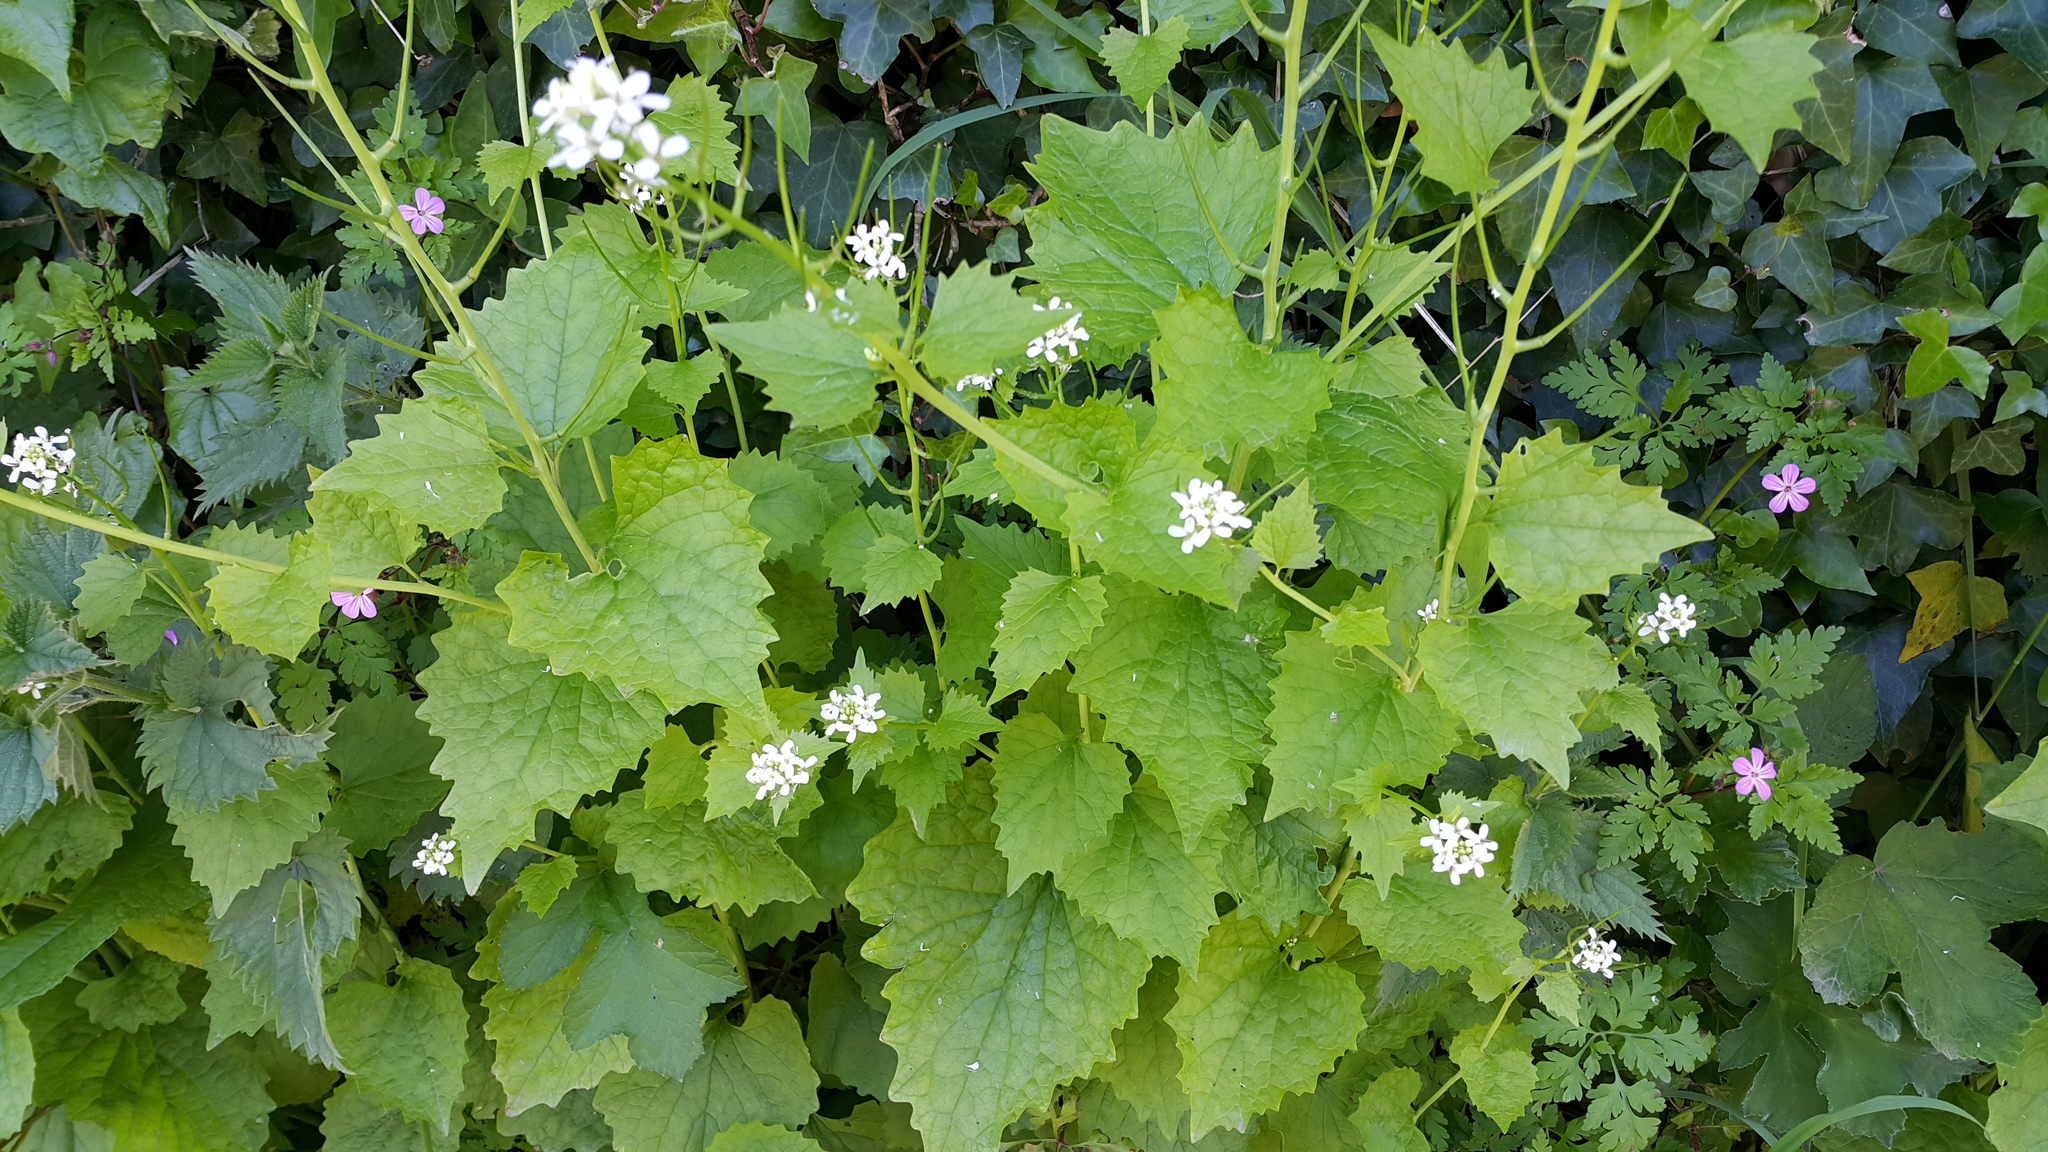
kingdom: Plantae
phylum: Tracheophyta
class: Magnoliopsida
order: Brassicales
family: Brassicaceae
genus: Alliaria
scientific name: Alliaria petiolata
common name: Garlic mustard
